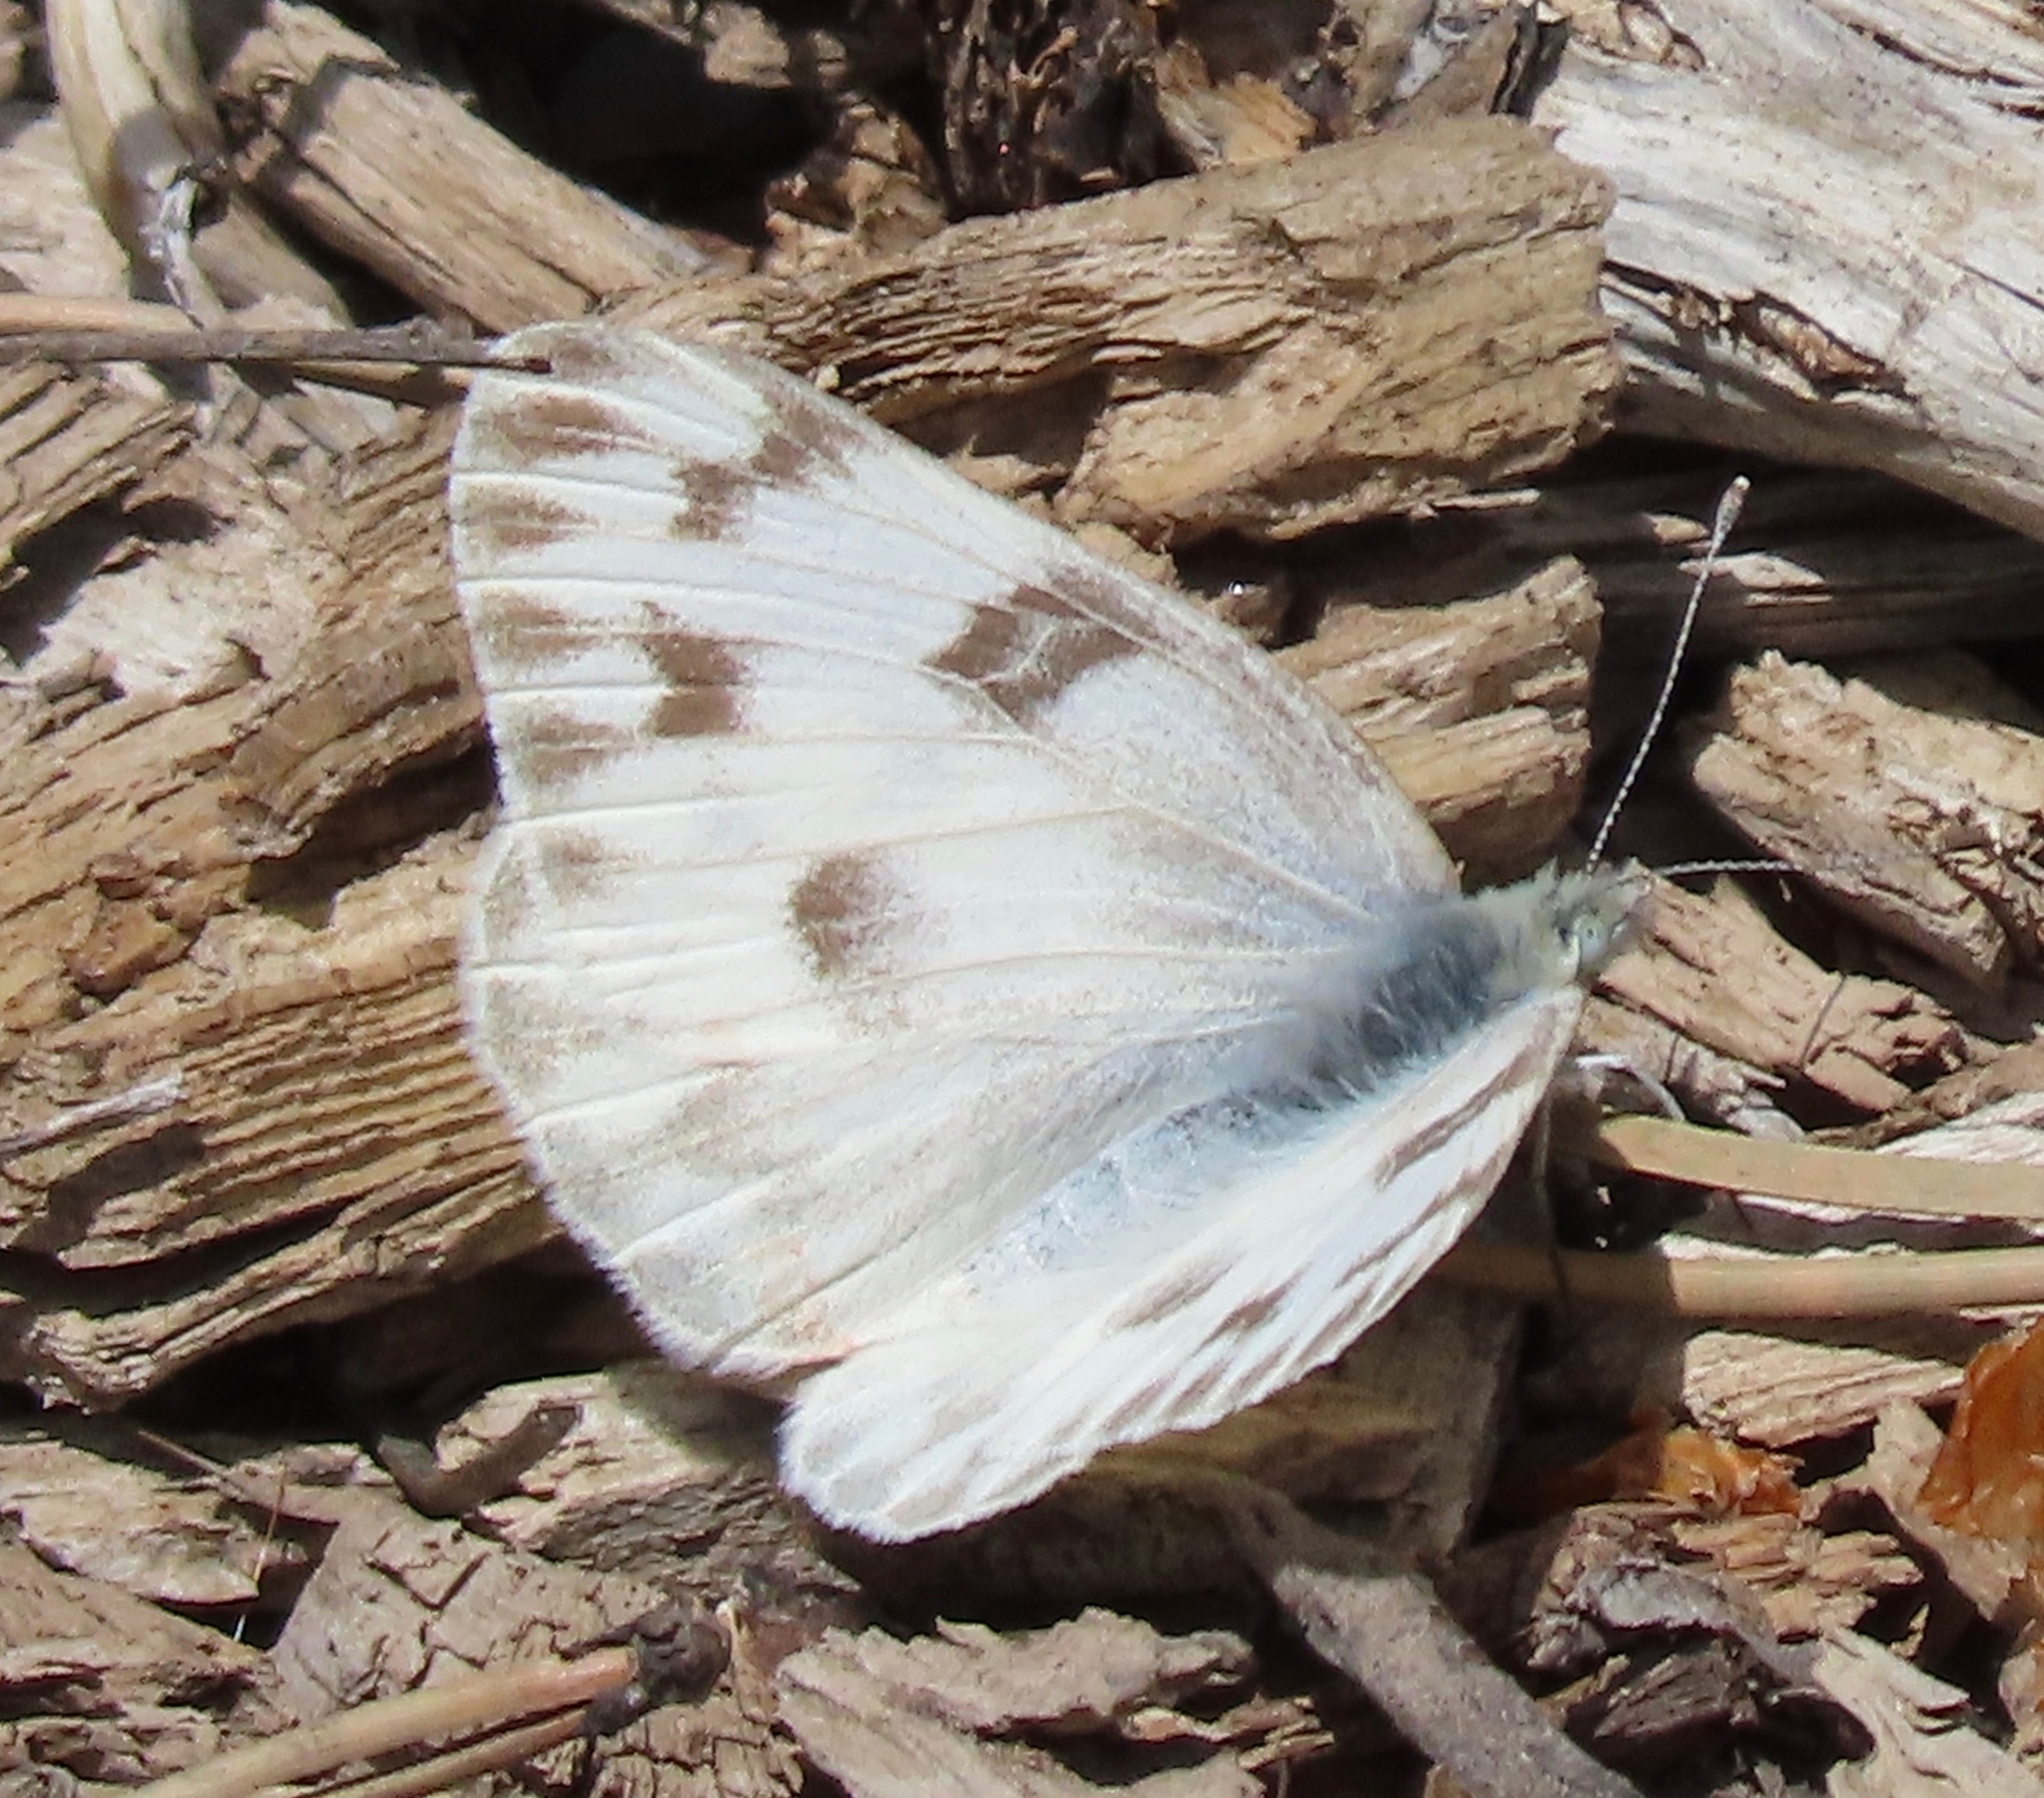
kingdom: Animalia
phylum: Arthropoda
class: Insecta
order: Lepidoptera
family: Pieridae
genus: Pontia
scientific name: Pontia protodice
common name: Checkered white
